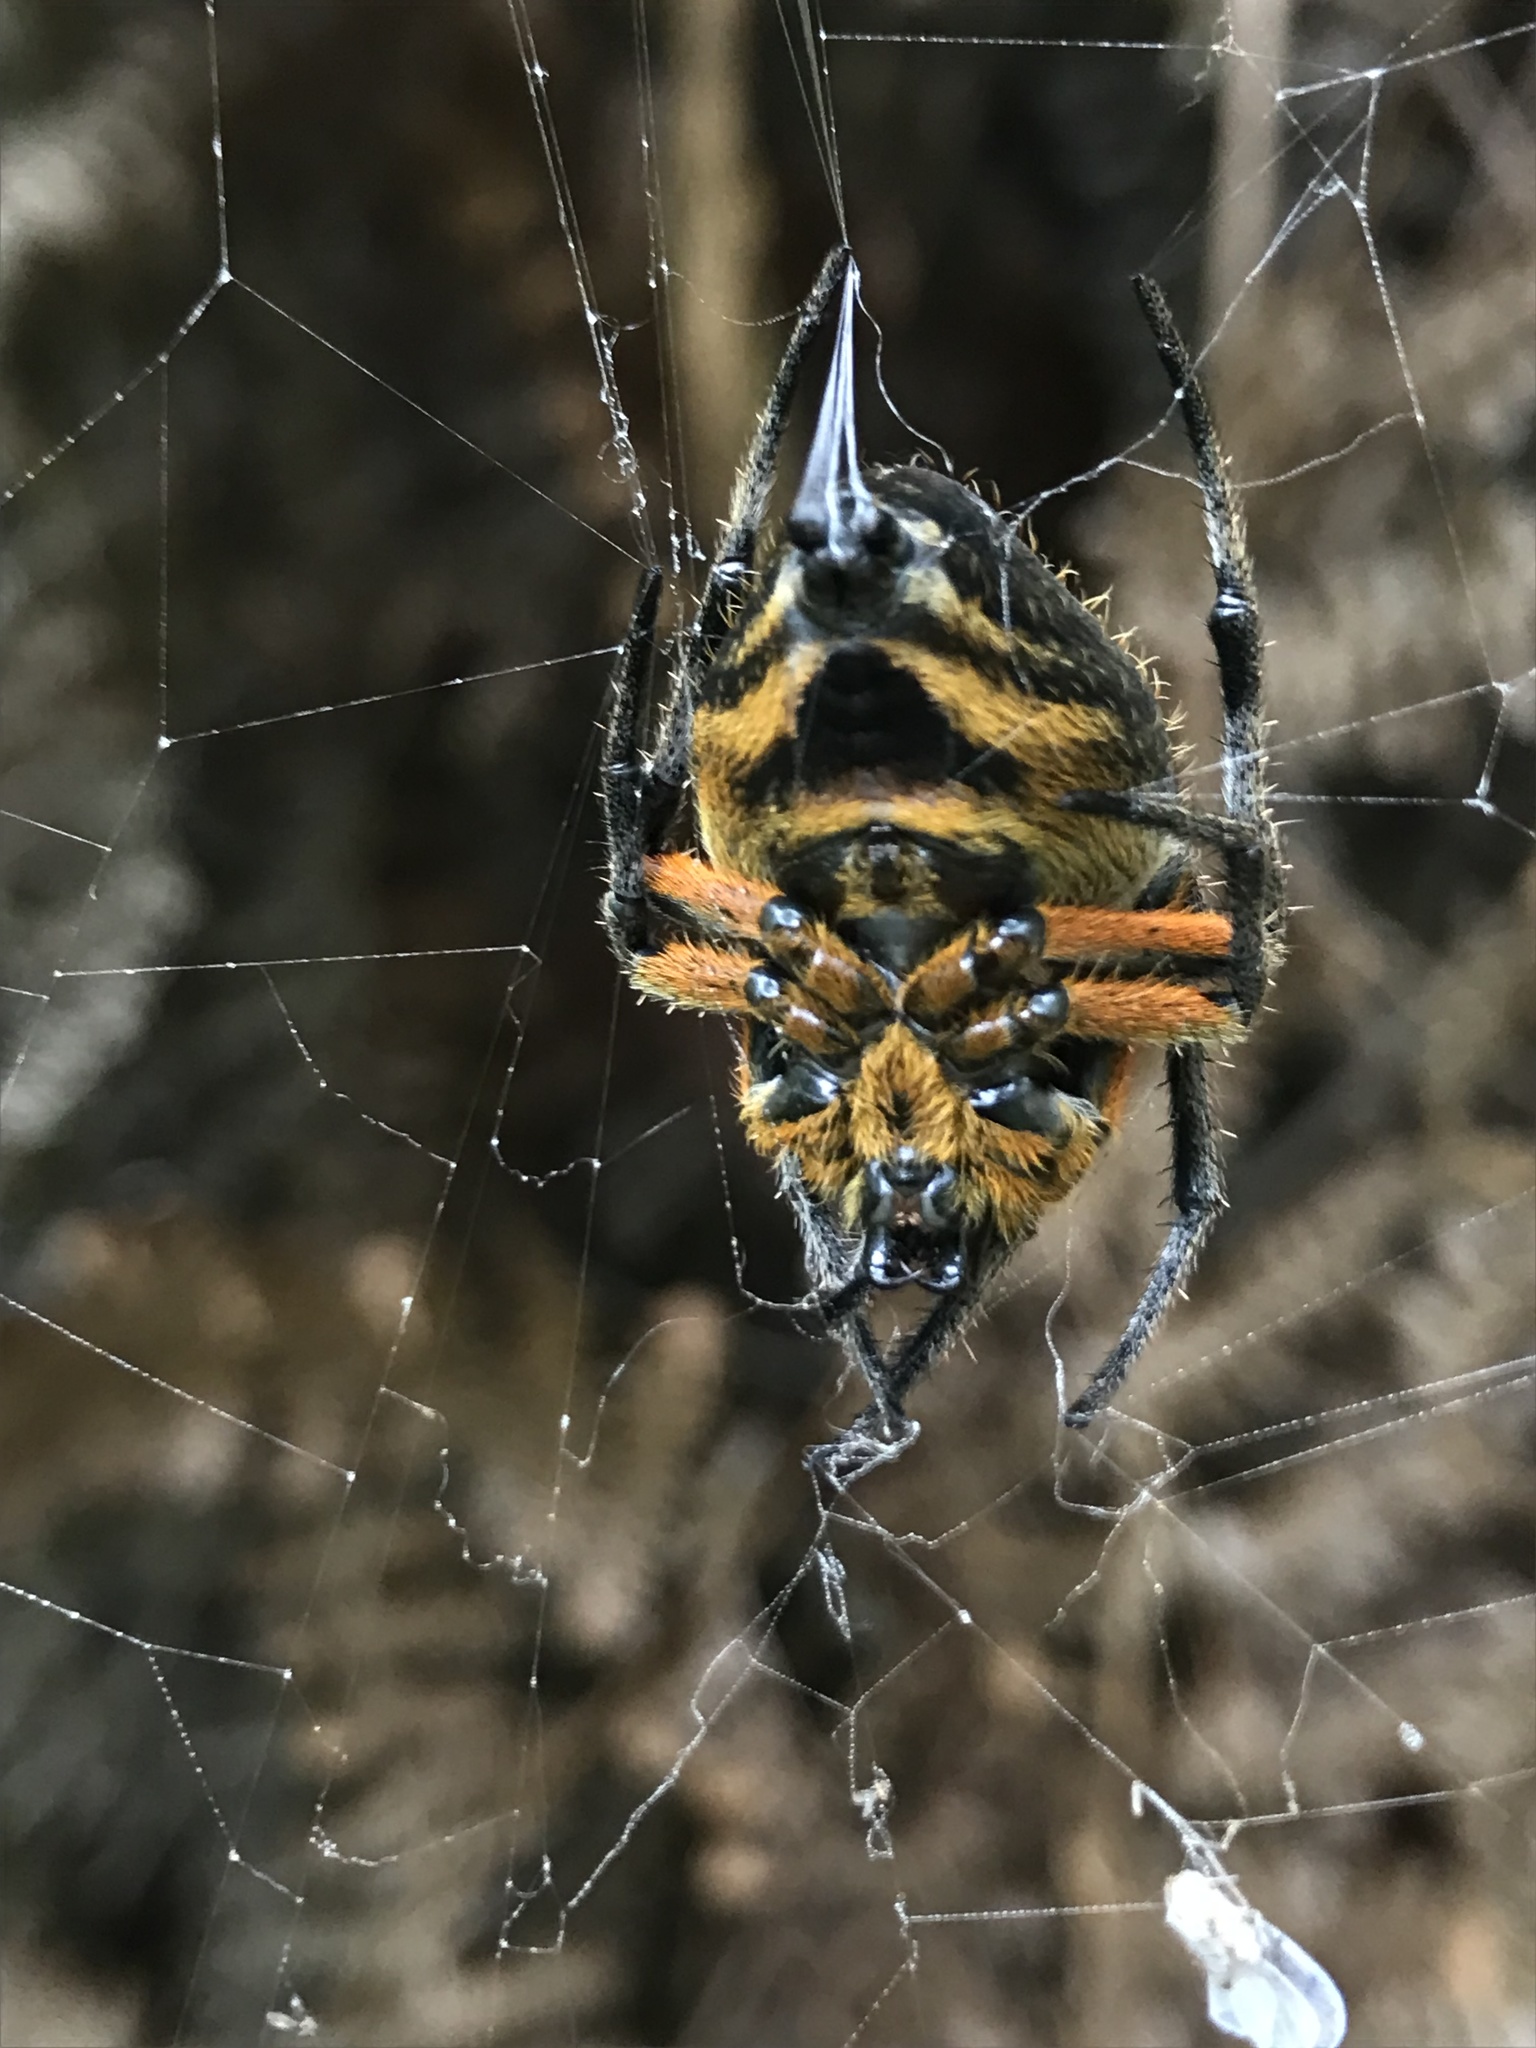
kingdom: Animalia
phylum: Arthropoda
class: Arachnida
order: Araneae
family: Araneidae
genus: Eriophora
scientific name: Eriophora fuliginea
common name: Orb weavers
